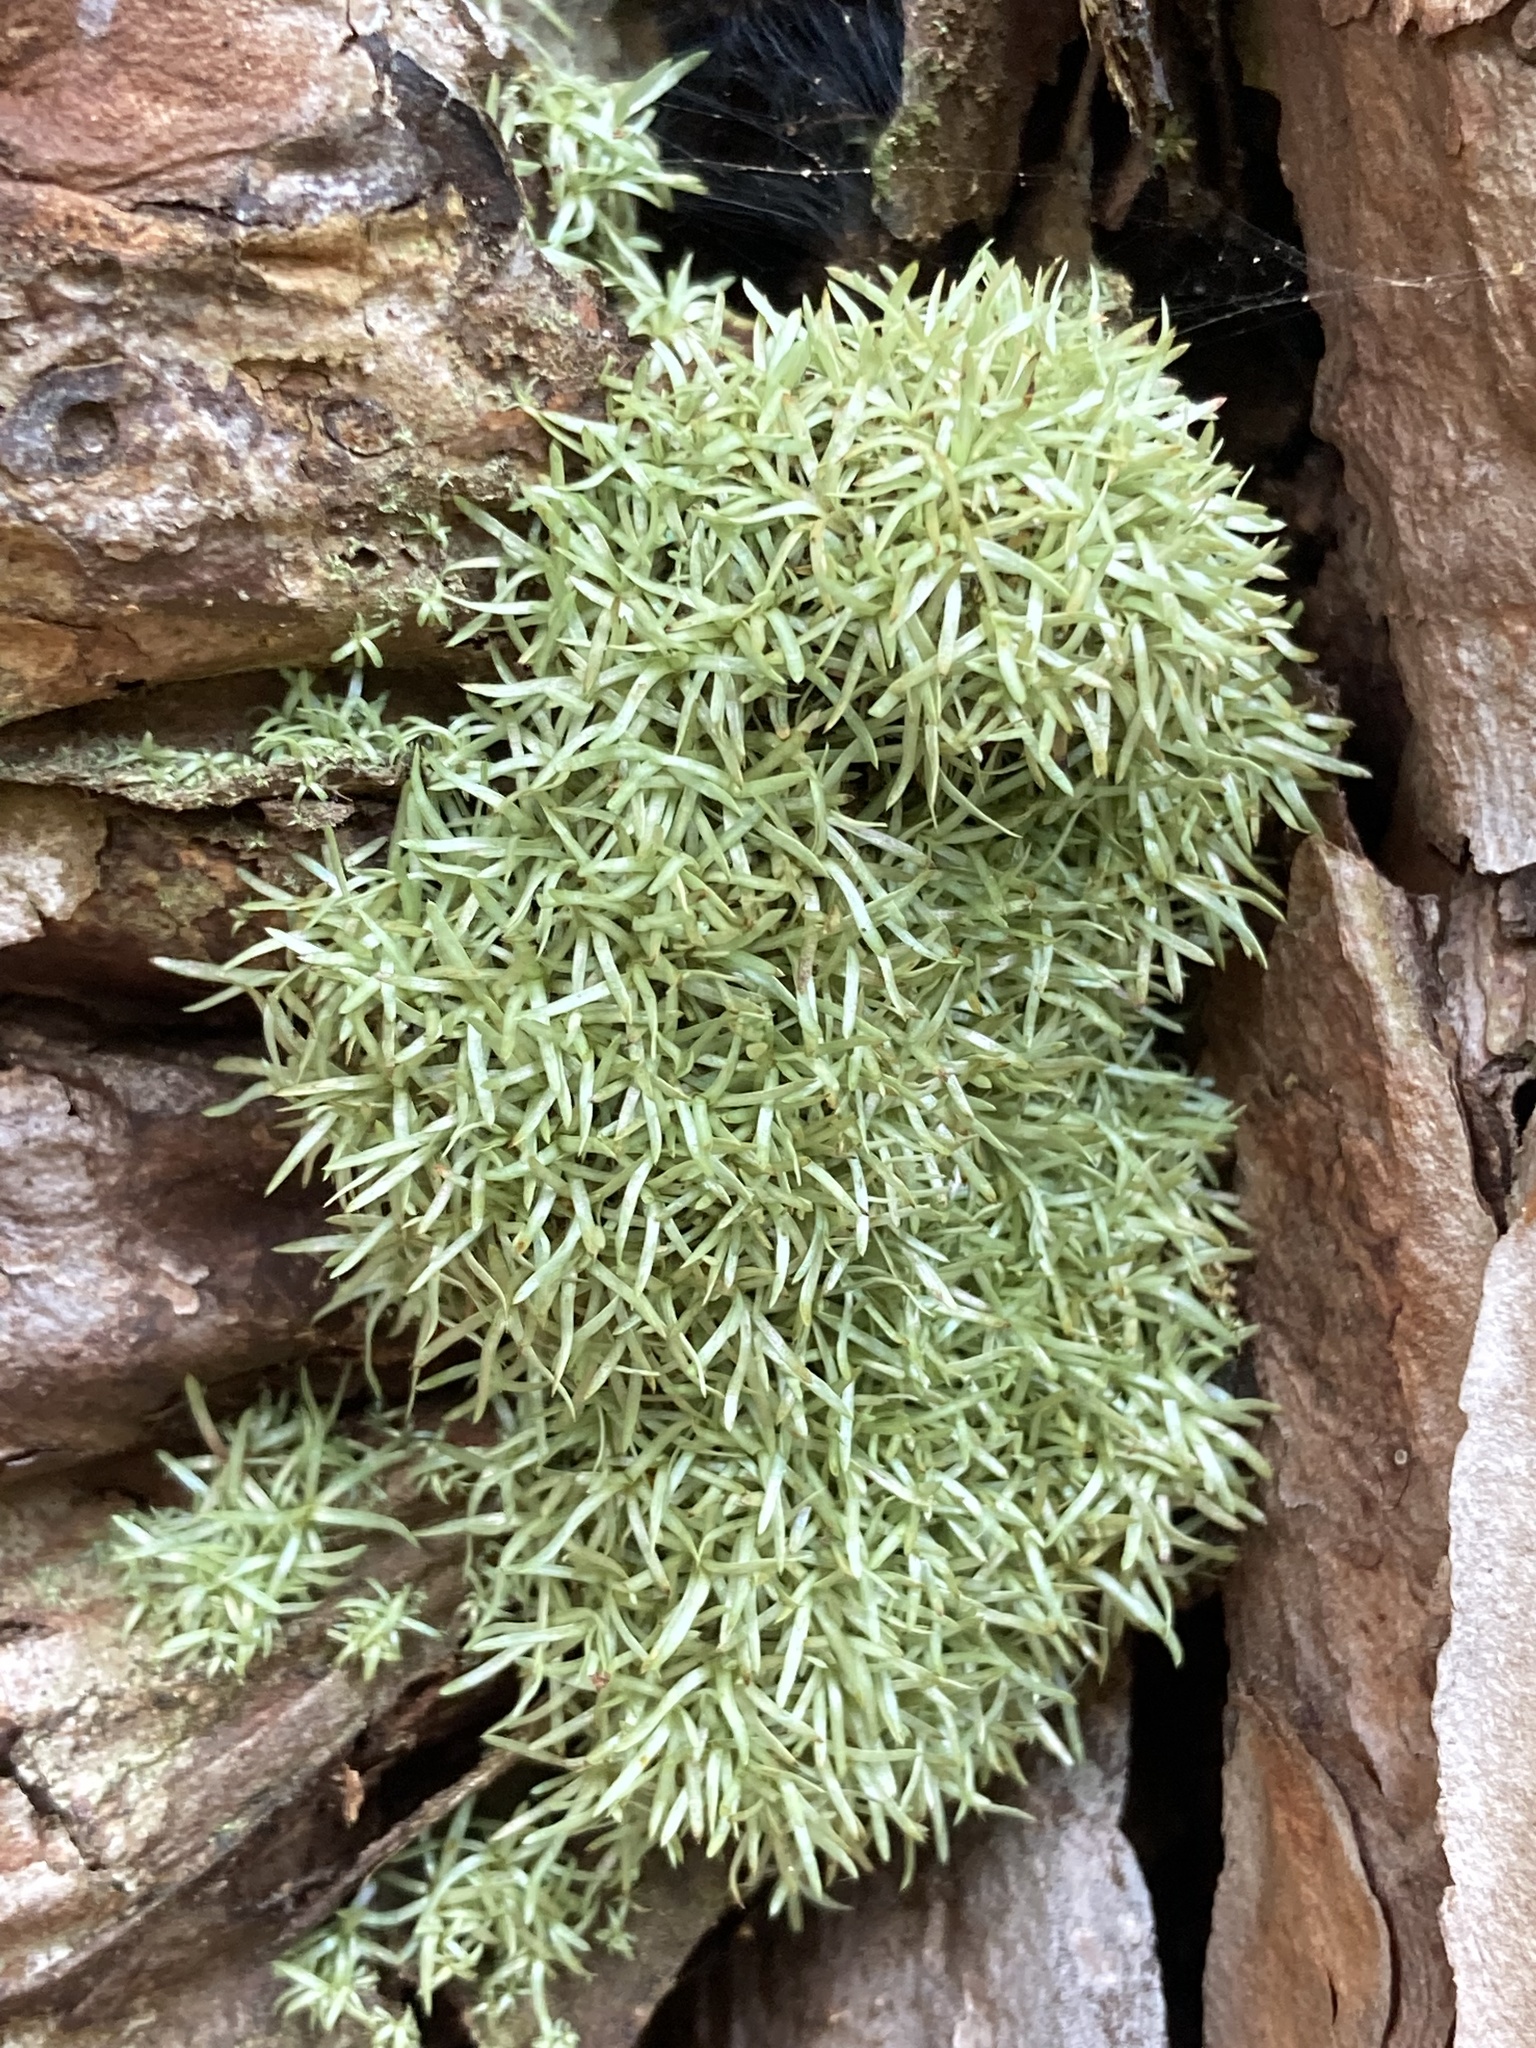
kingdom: Plantae
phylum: Bryophyta
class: Bryopsida
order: Dicranales
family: Octoblepharaceae
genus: Octoblepharum
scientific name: Octoblepharum albidum
